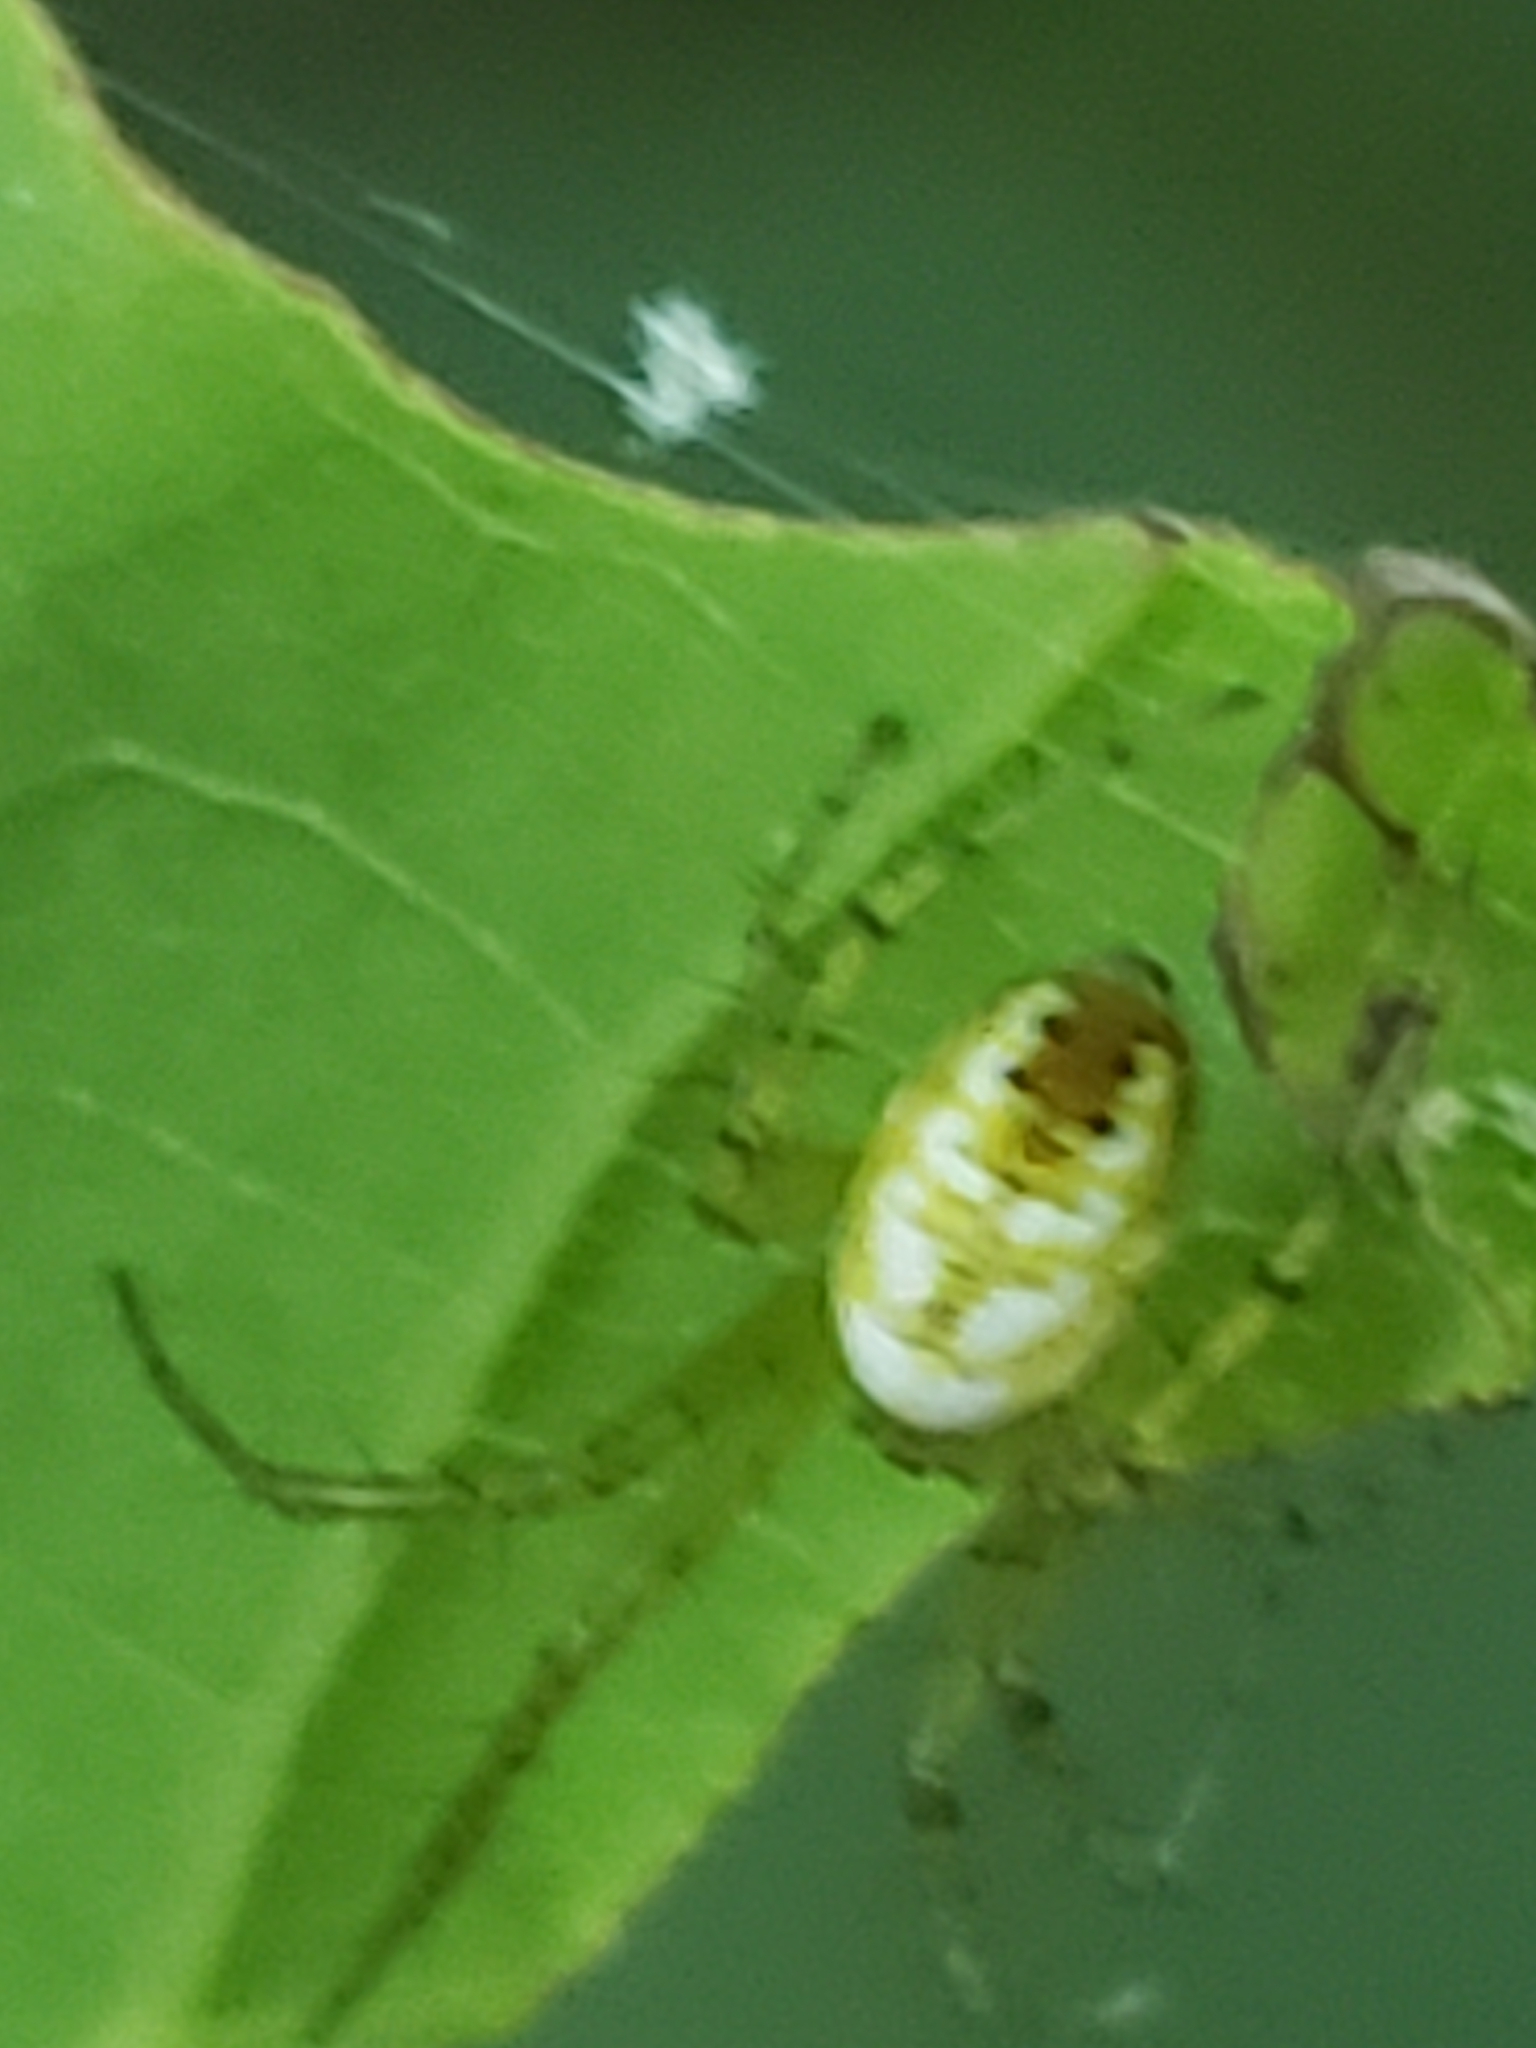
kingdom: Animalia
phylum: Arthropoda
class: Arachnida
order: Araneae
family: Araneidae
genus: Mangora
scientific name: Mangora maculata
